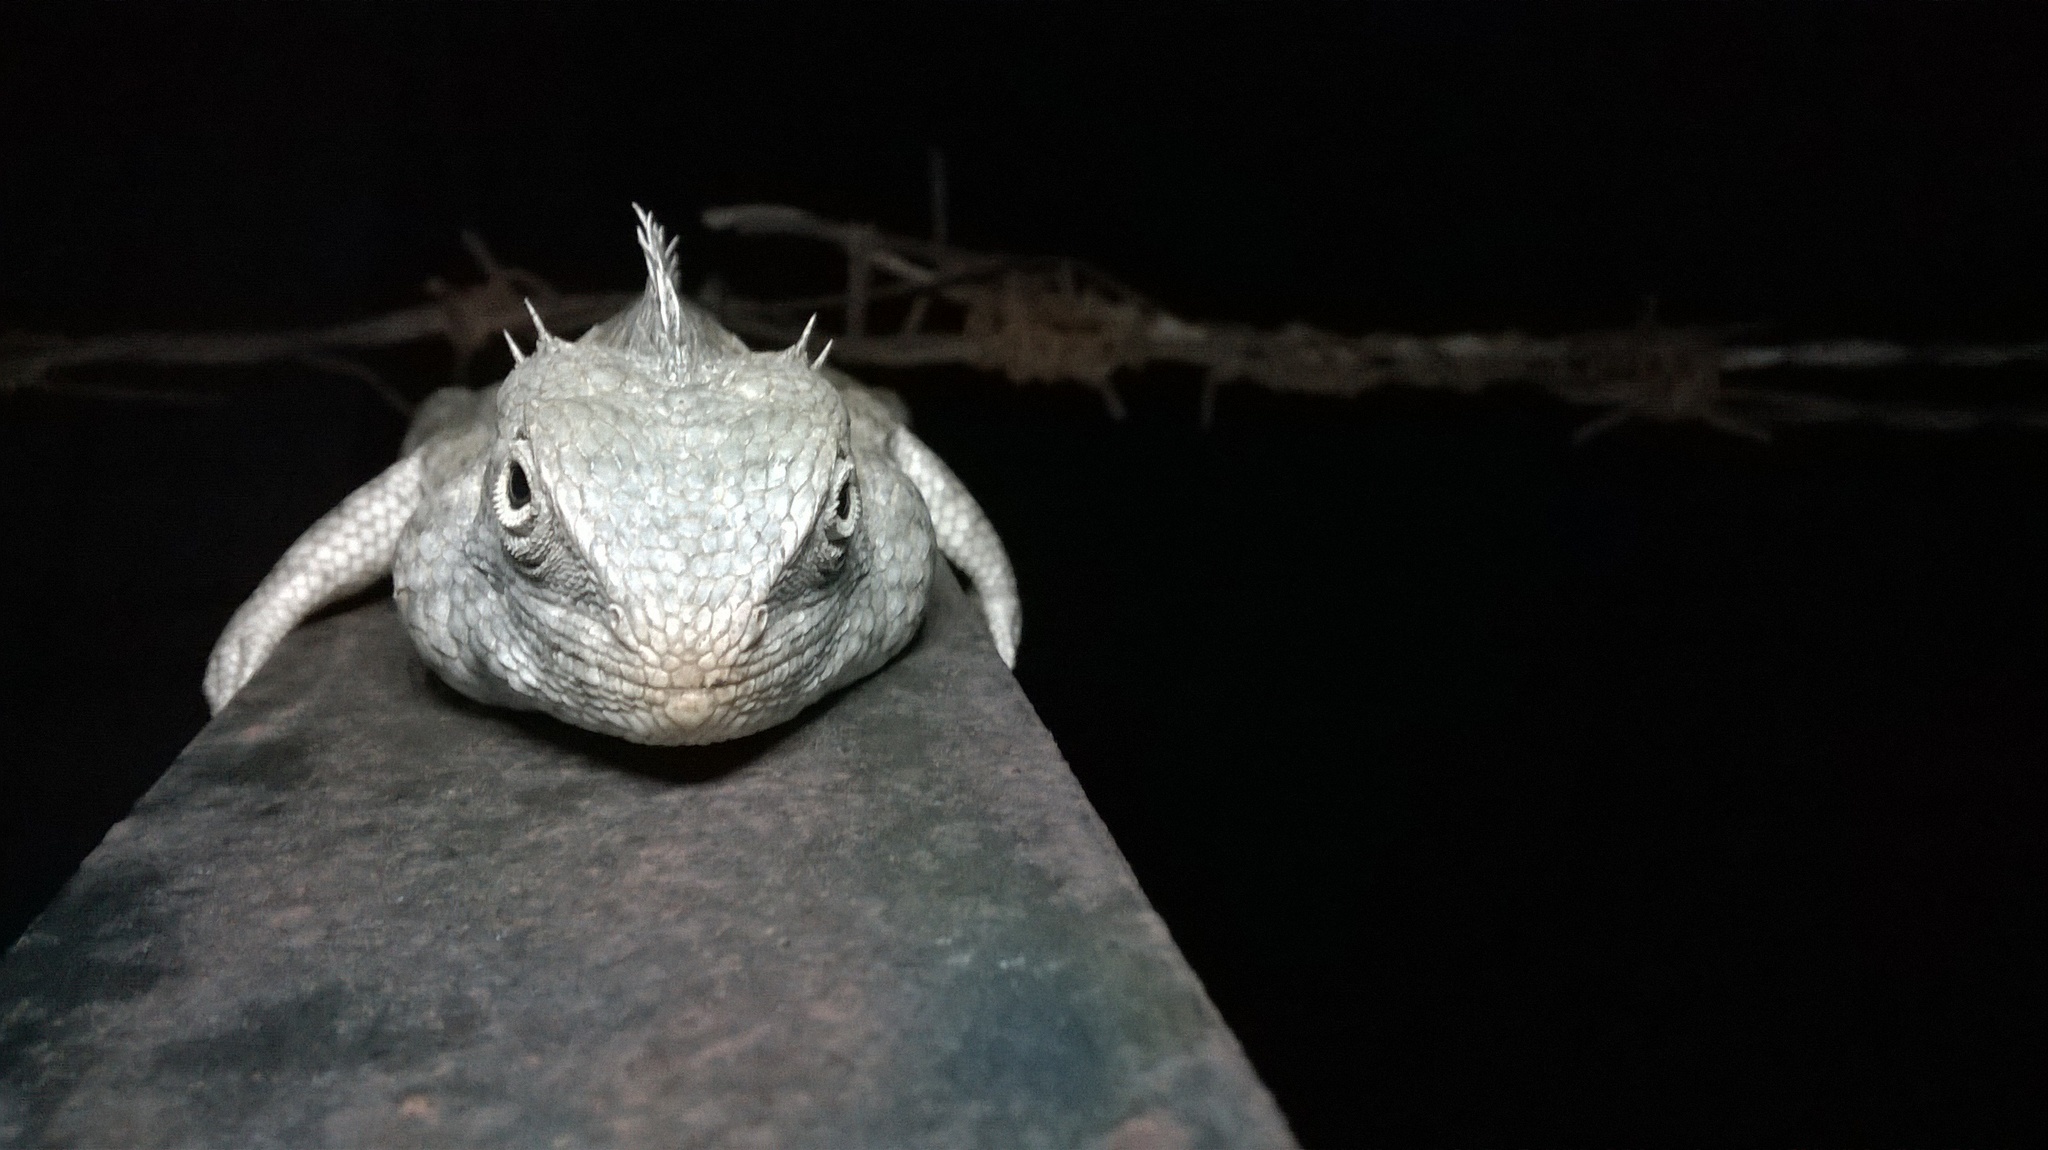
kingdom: Animalia
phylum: Chordata
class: Squamata
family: Agamidae
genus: Calotes
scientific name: Calotes versicolor
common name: Oriental garden lizard
